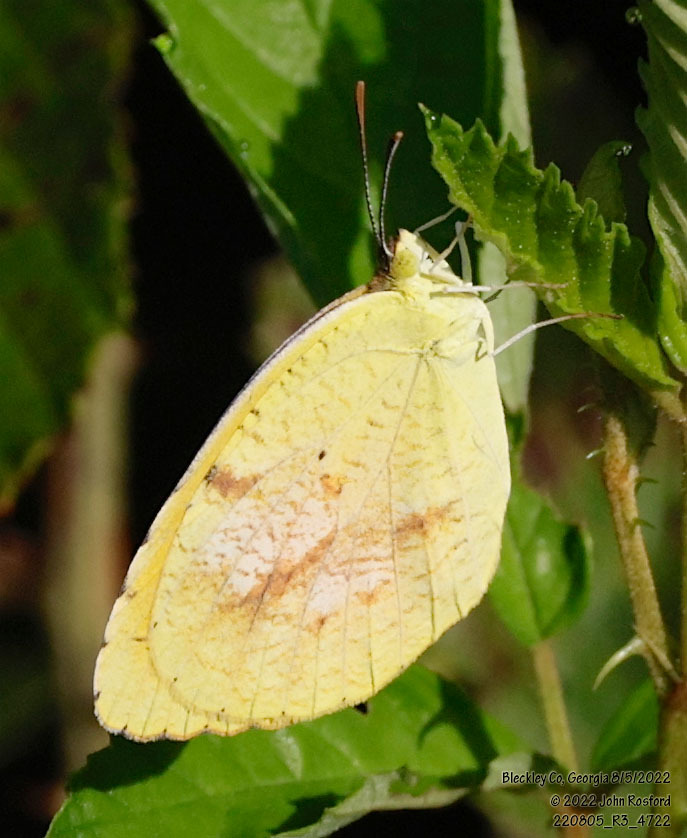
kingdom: Animalia
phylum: Arthropoda
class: Insecta
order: Lepidoptera
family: Pieridae
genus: Abaeis
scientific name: Abaeis nicippe
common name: Sleepy orange
